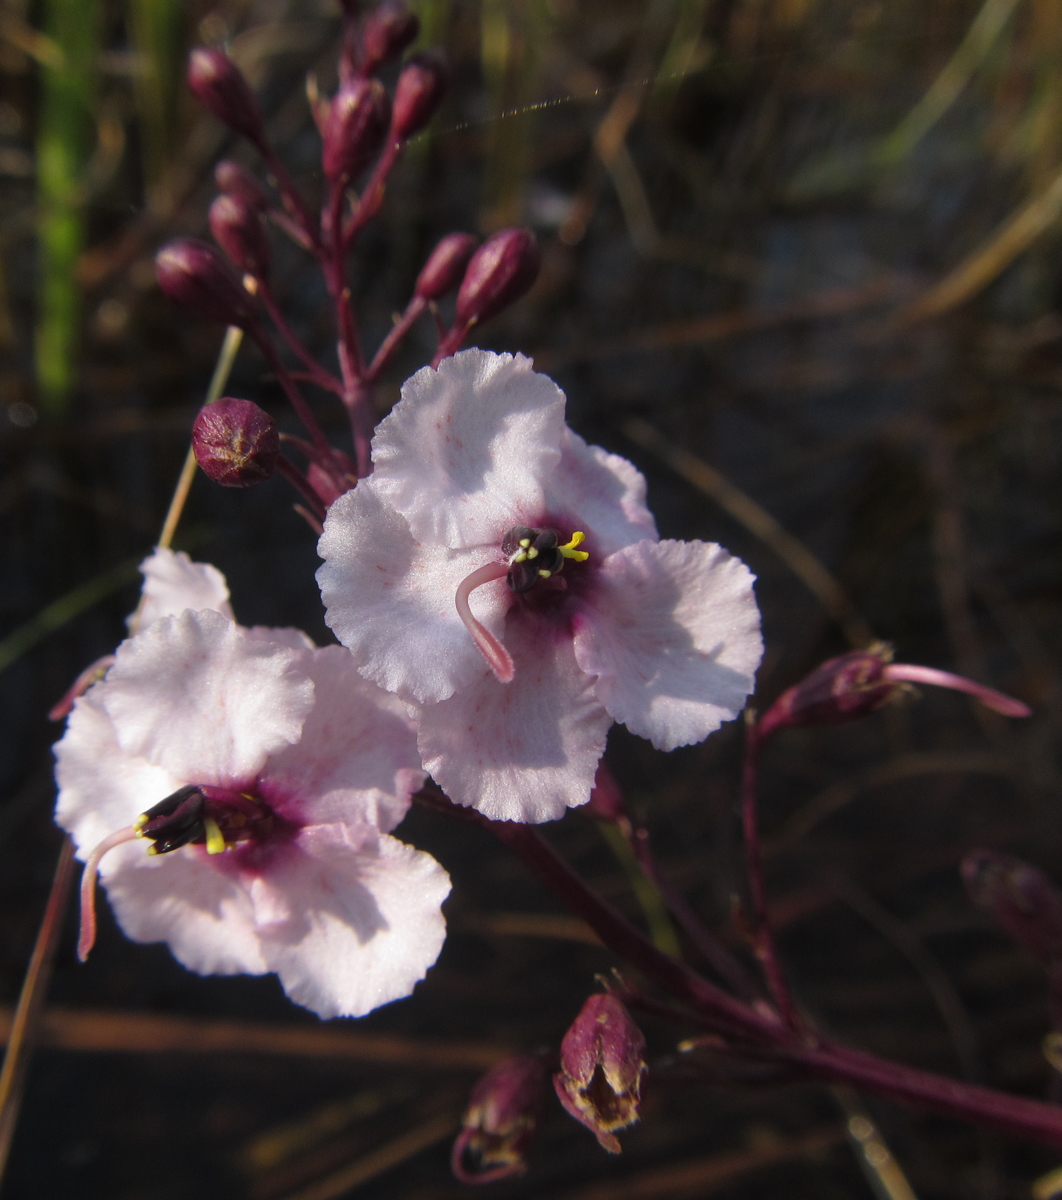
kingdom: Plantae
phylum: Tracheophyta
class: Magnoliopsida
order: Lamiales
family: Orobanchaceae
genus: Sopubia
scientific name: Sopubia mannii
